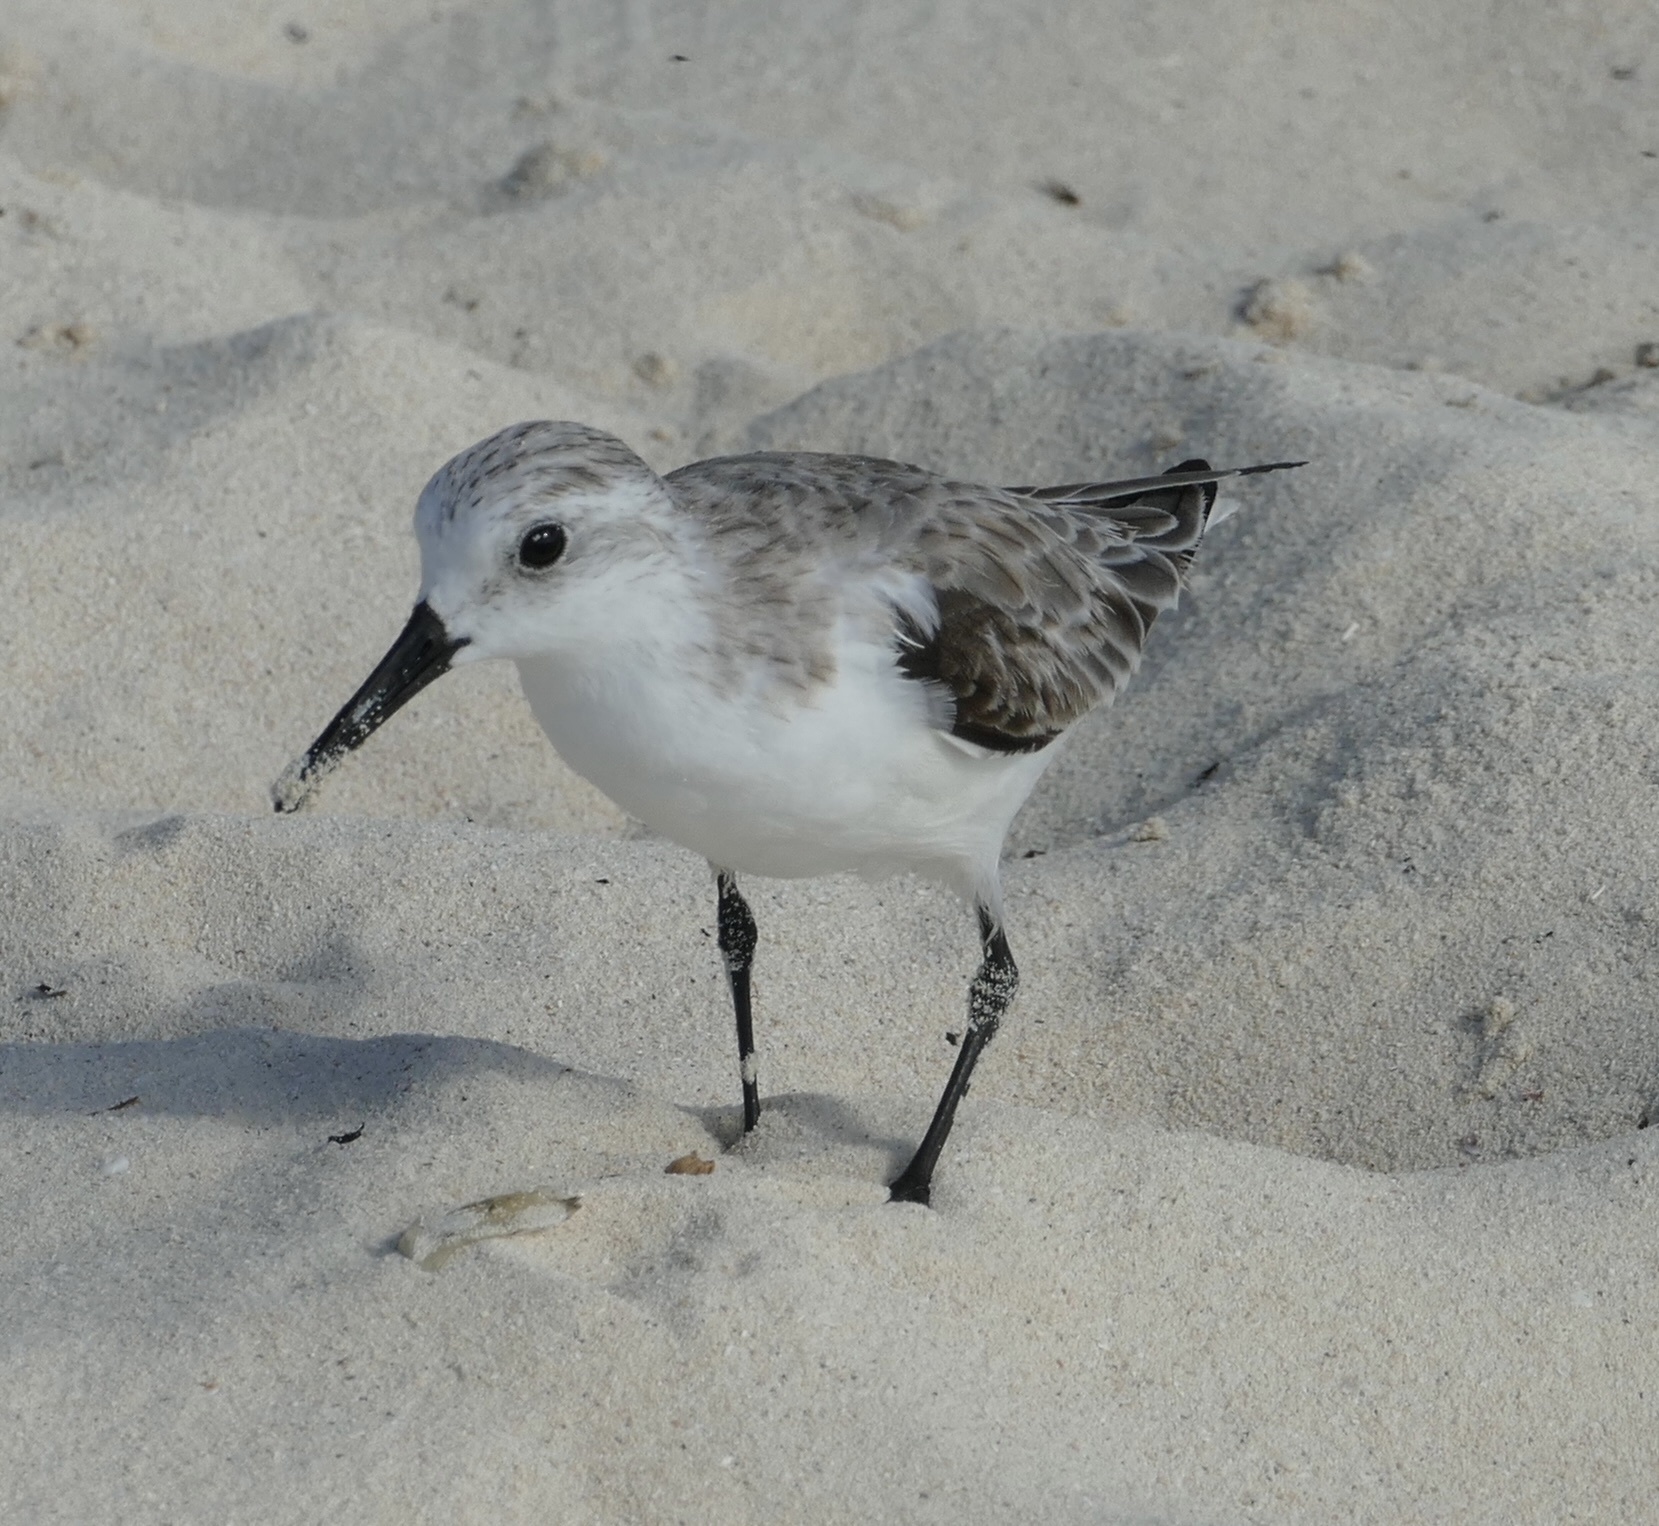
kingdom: Animalia
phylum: Chordata
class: Aves
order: Charadriiformes
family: Scolopacidae
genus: Calidris
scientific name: Calidris alba
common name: Sanderling
